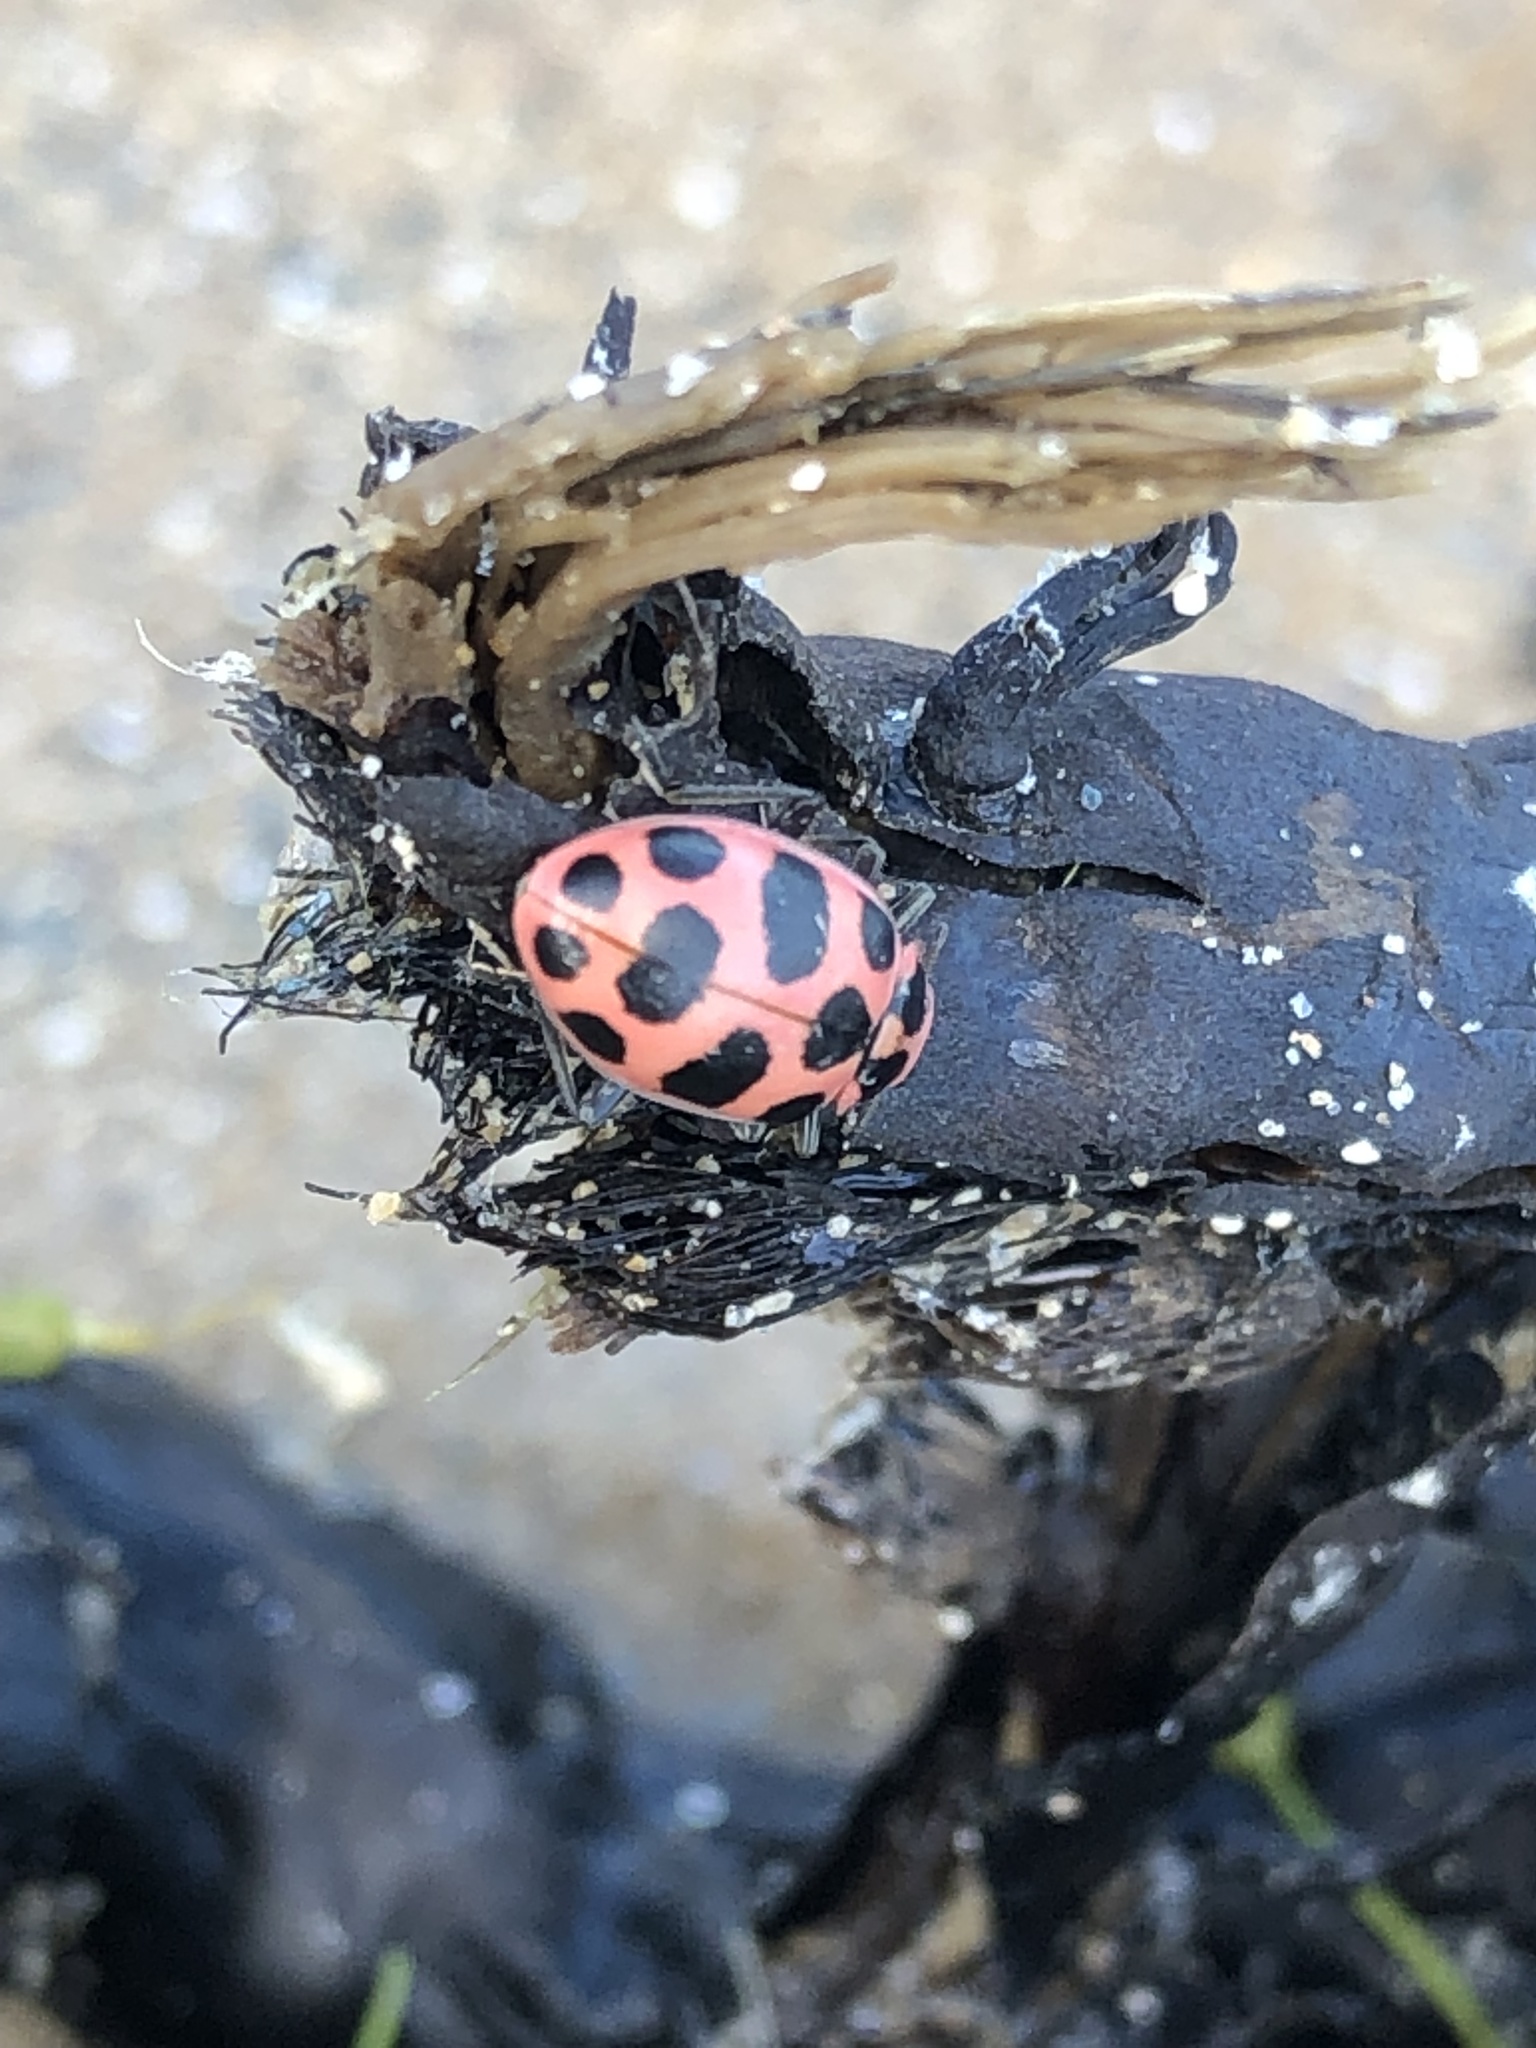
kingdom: Animalia
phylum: Arthropoda
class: Insecta
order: Coleoptera
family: Coccinellidae
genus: Coleomegilla
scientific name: Coleomegilla maculata
